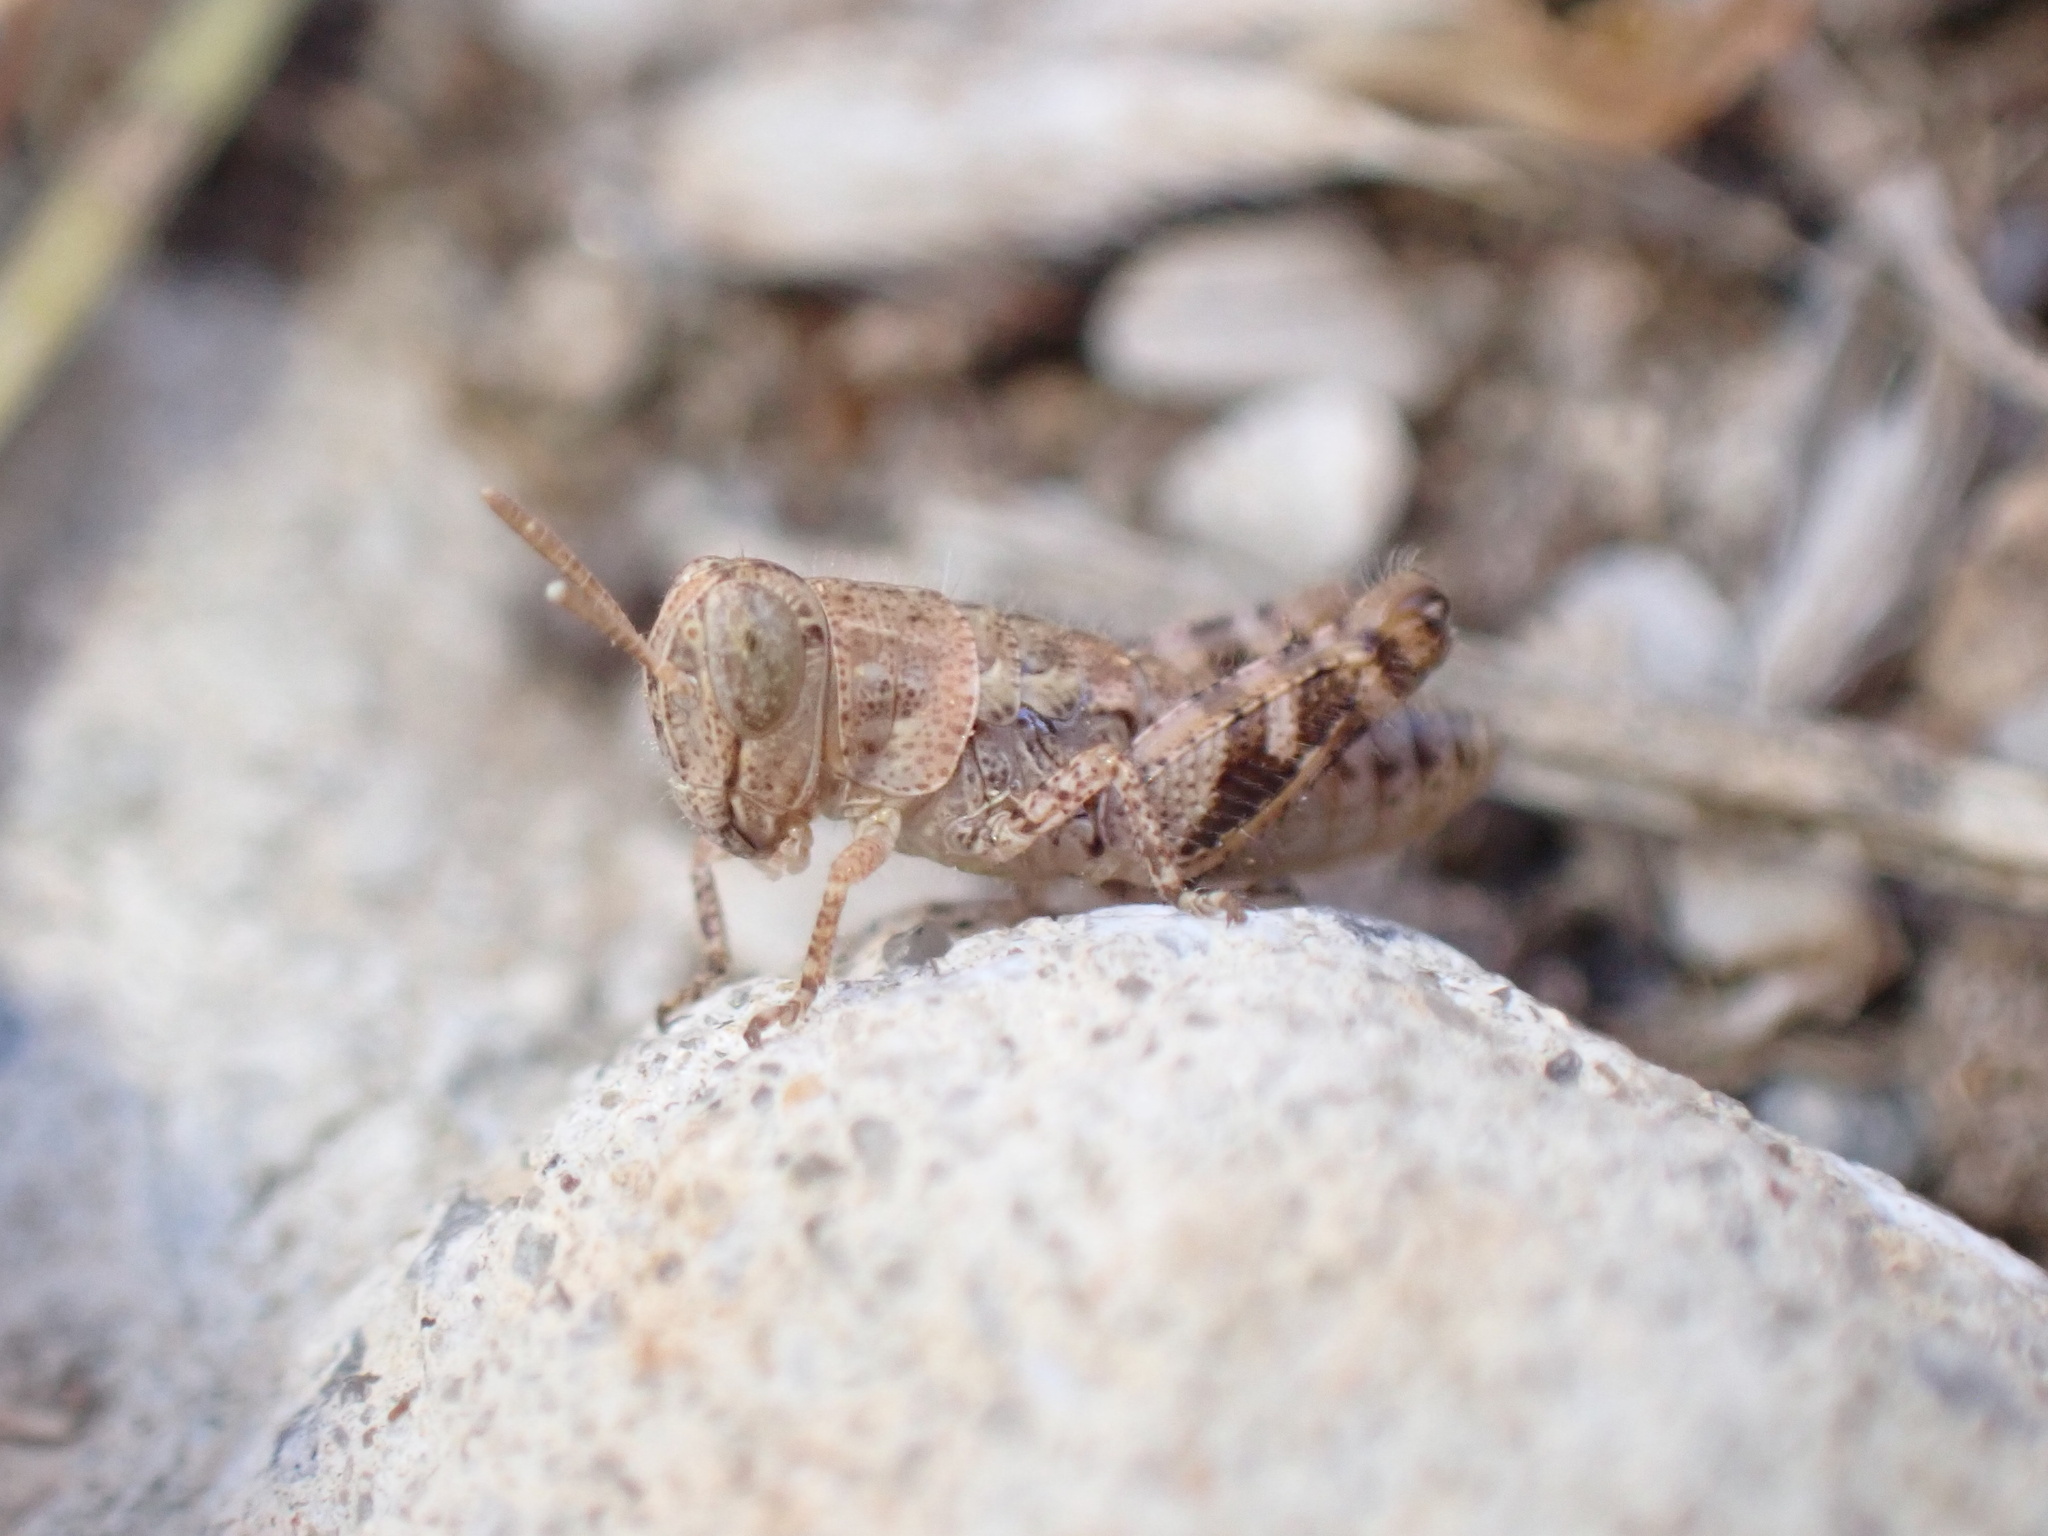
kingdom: Animalia
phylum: Arthropoda
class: Insecta
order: Orthoptera
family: Acrididae
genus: Calliptamus
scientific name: Calliptamus
